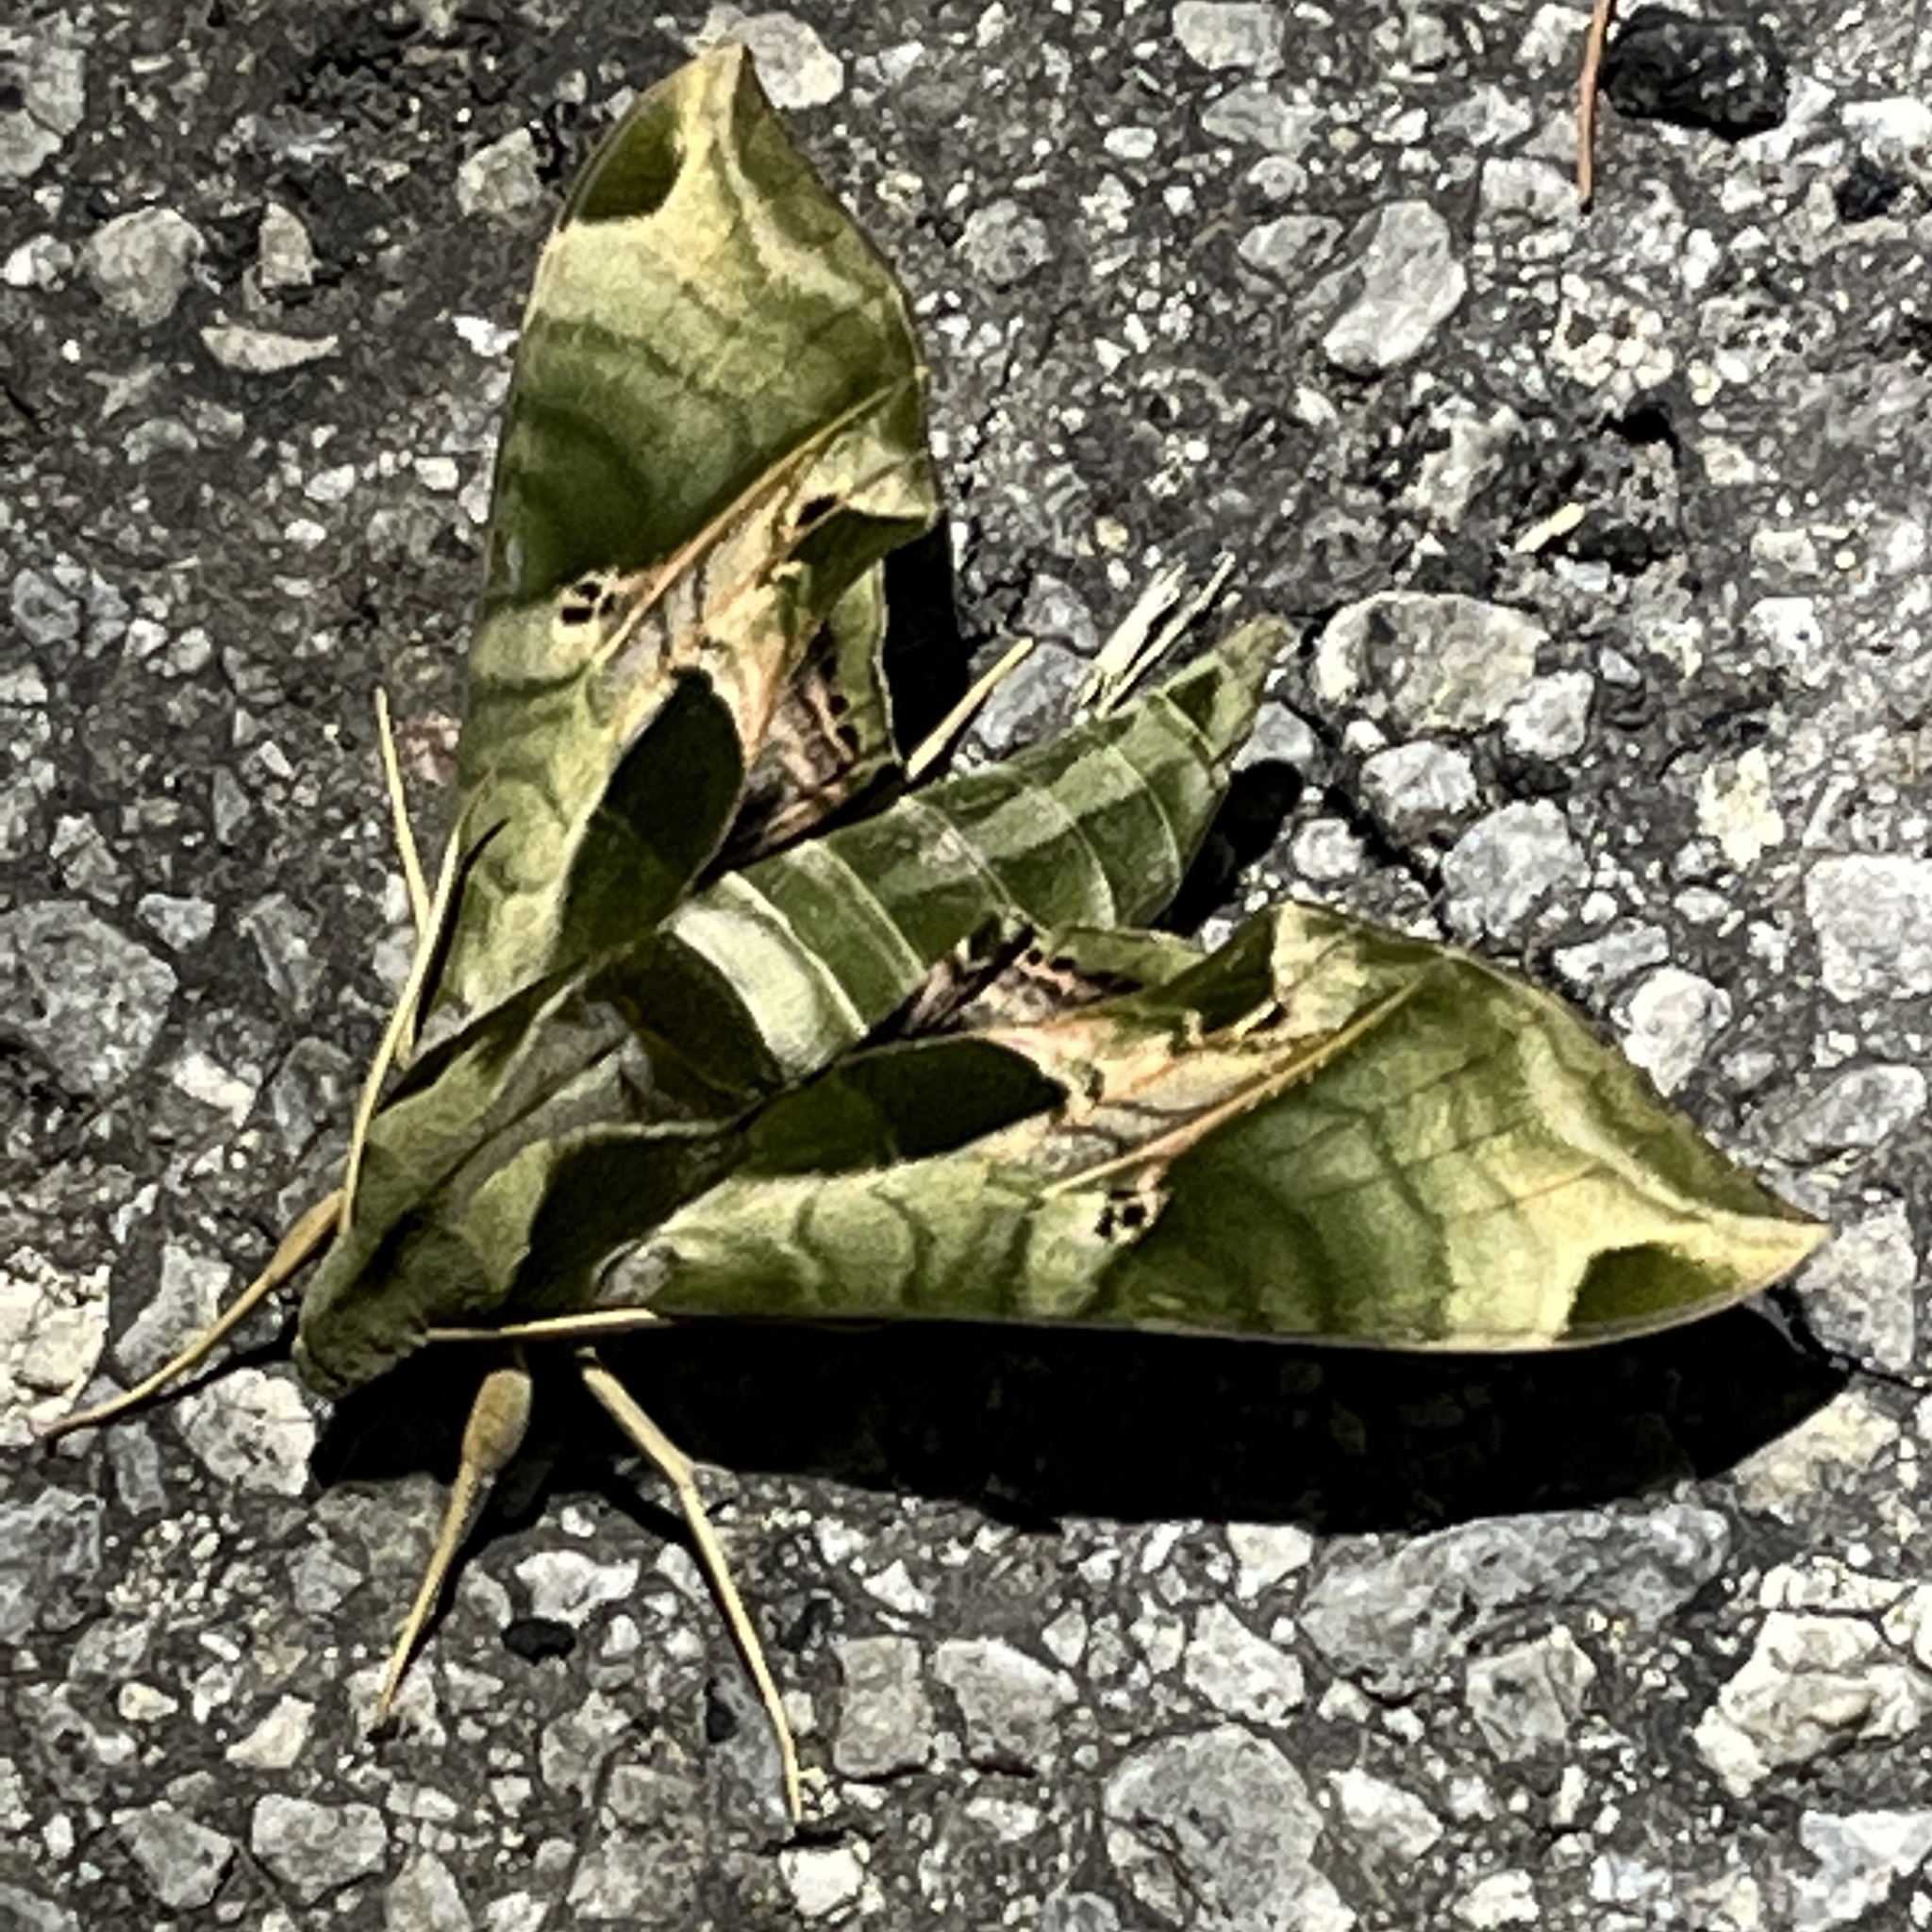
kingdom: Animalia
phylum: Arthropoda
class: Insecta
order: Lepidoptera
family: Sphingidae
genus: Eumorpha
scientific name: Eumorpha pandorus
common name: Pandora sphinx
